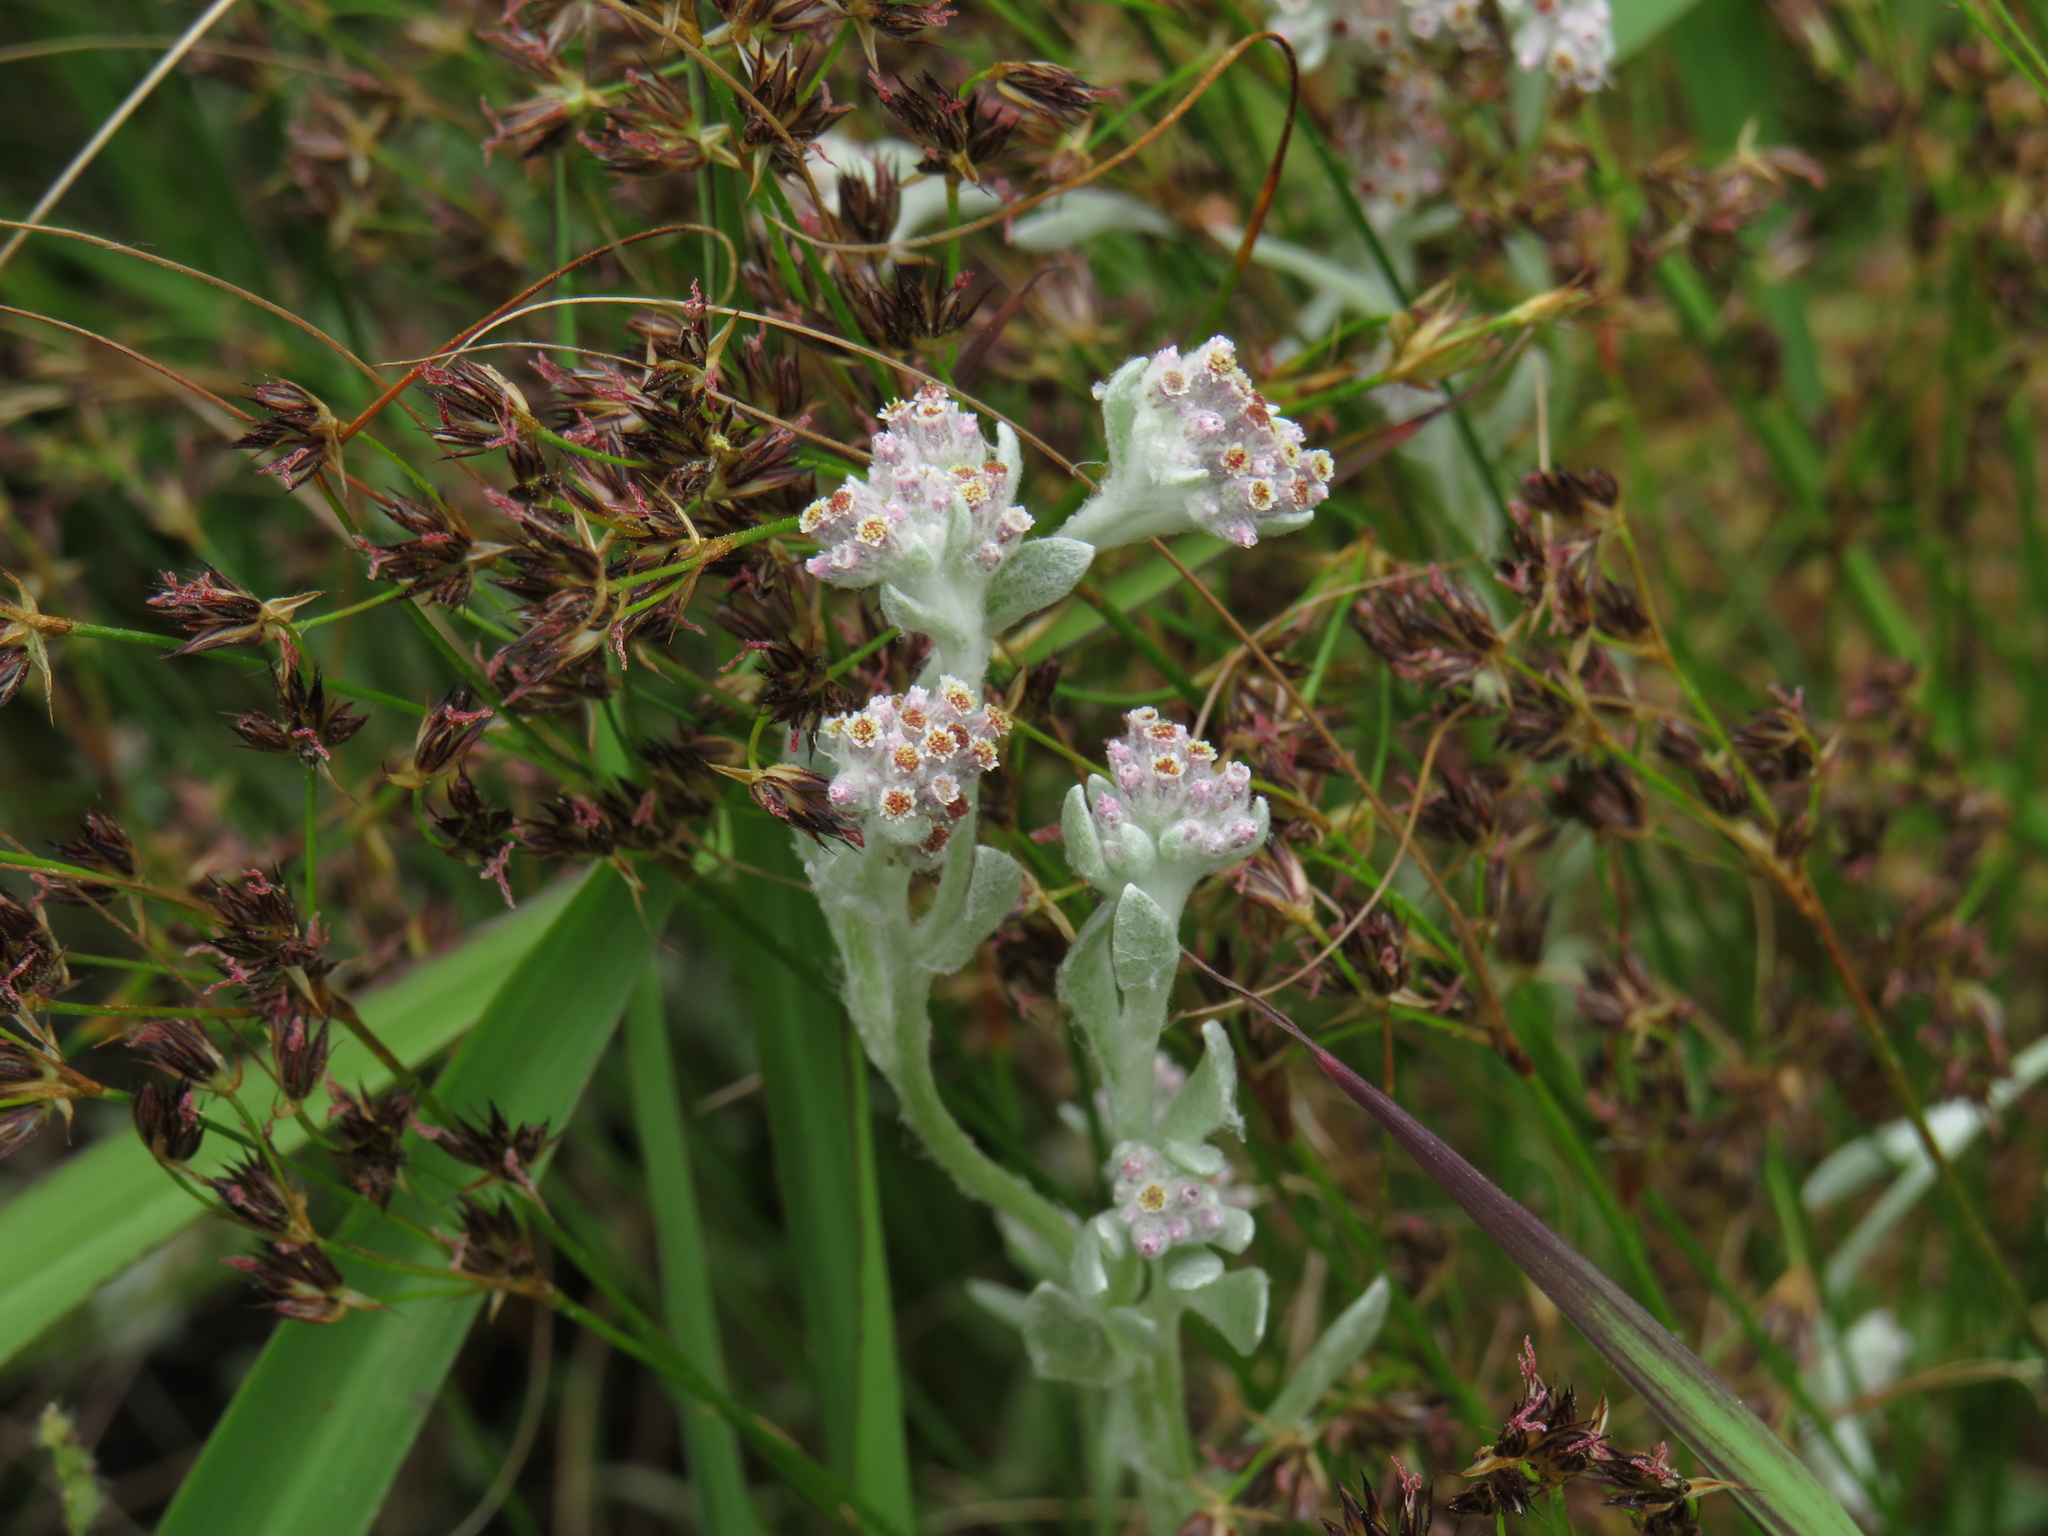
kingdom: Plantae
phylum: Tracheophyta
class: Magnoliopsida
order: Asterales
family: Asteraceae
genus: Vellereophyton
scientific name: Vellereophyton dealbatum
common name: White-cudweed
